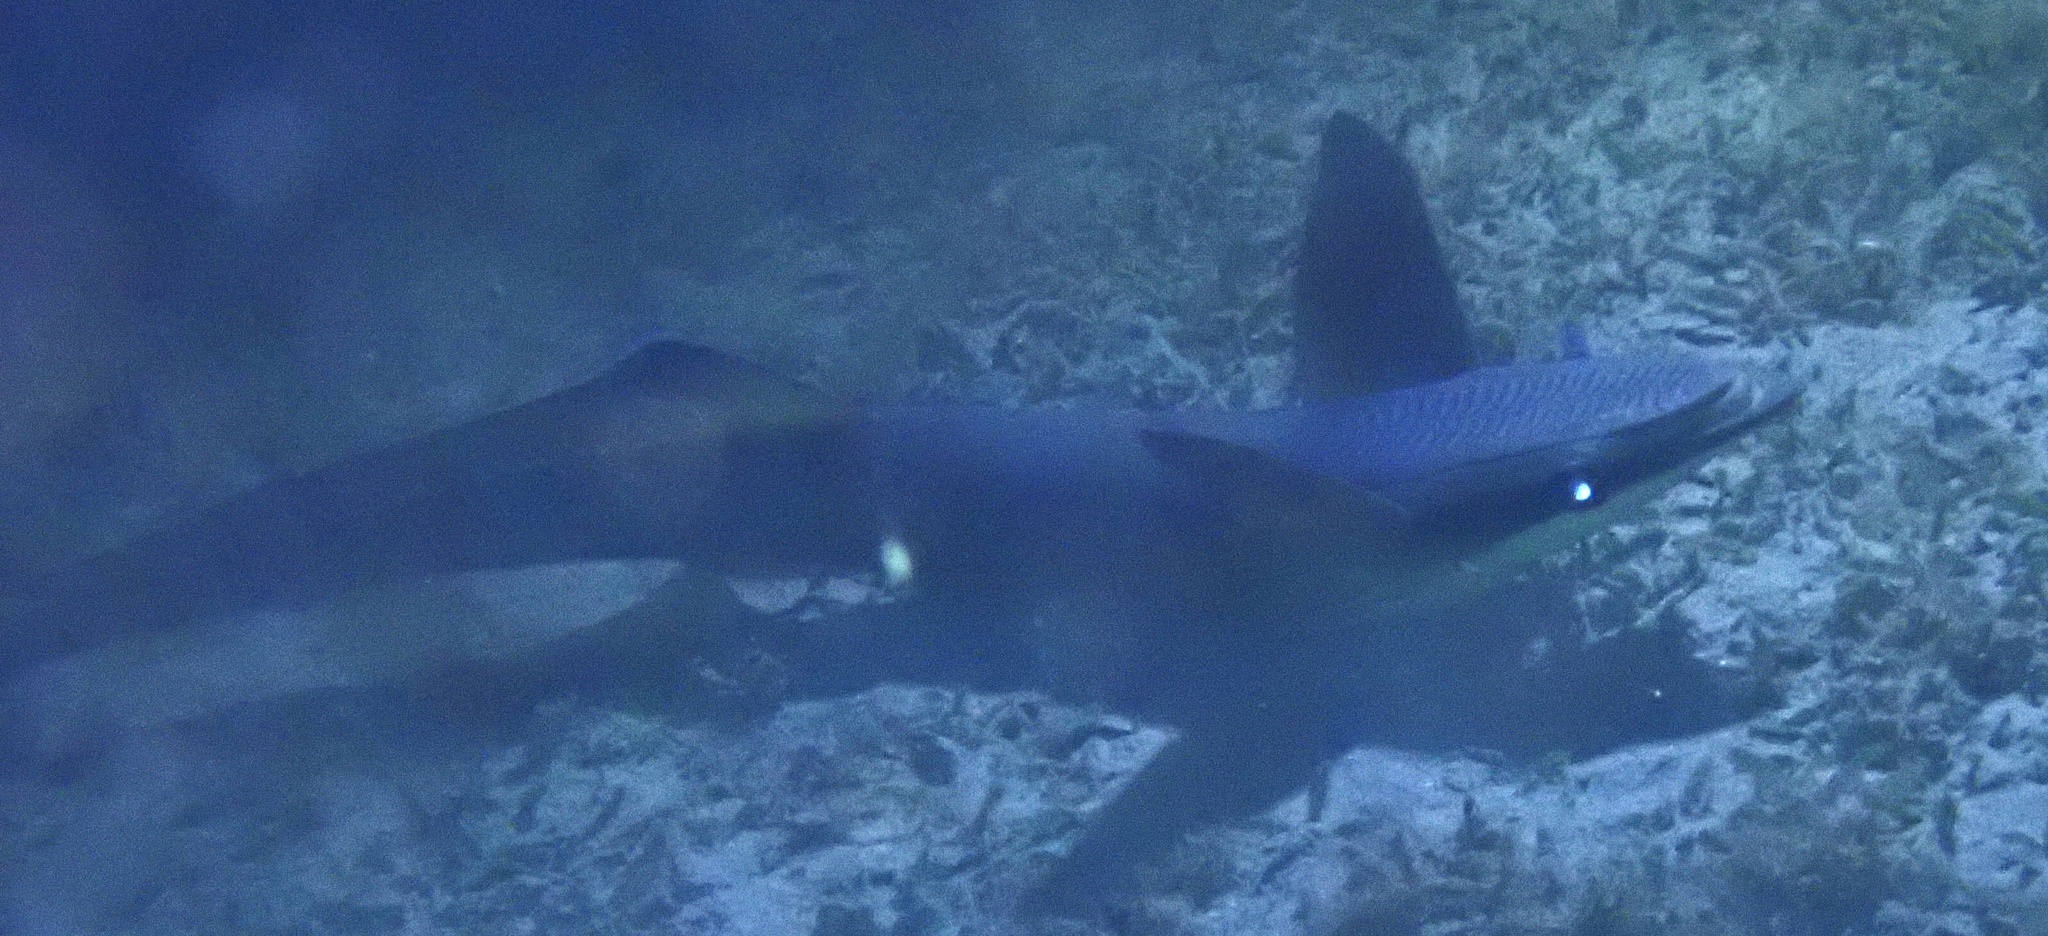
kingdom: Animalia
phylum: Chordata
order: Perciformes
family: Echeneidae
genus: Echeneis
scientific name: Echeneis naucrates
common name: Sharksucker
